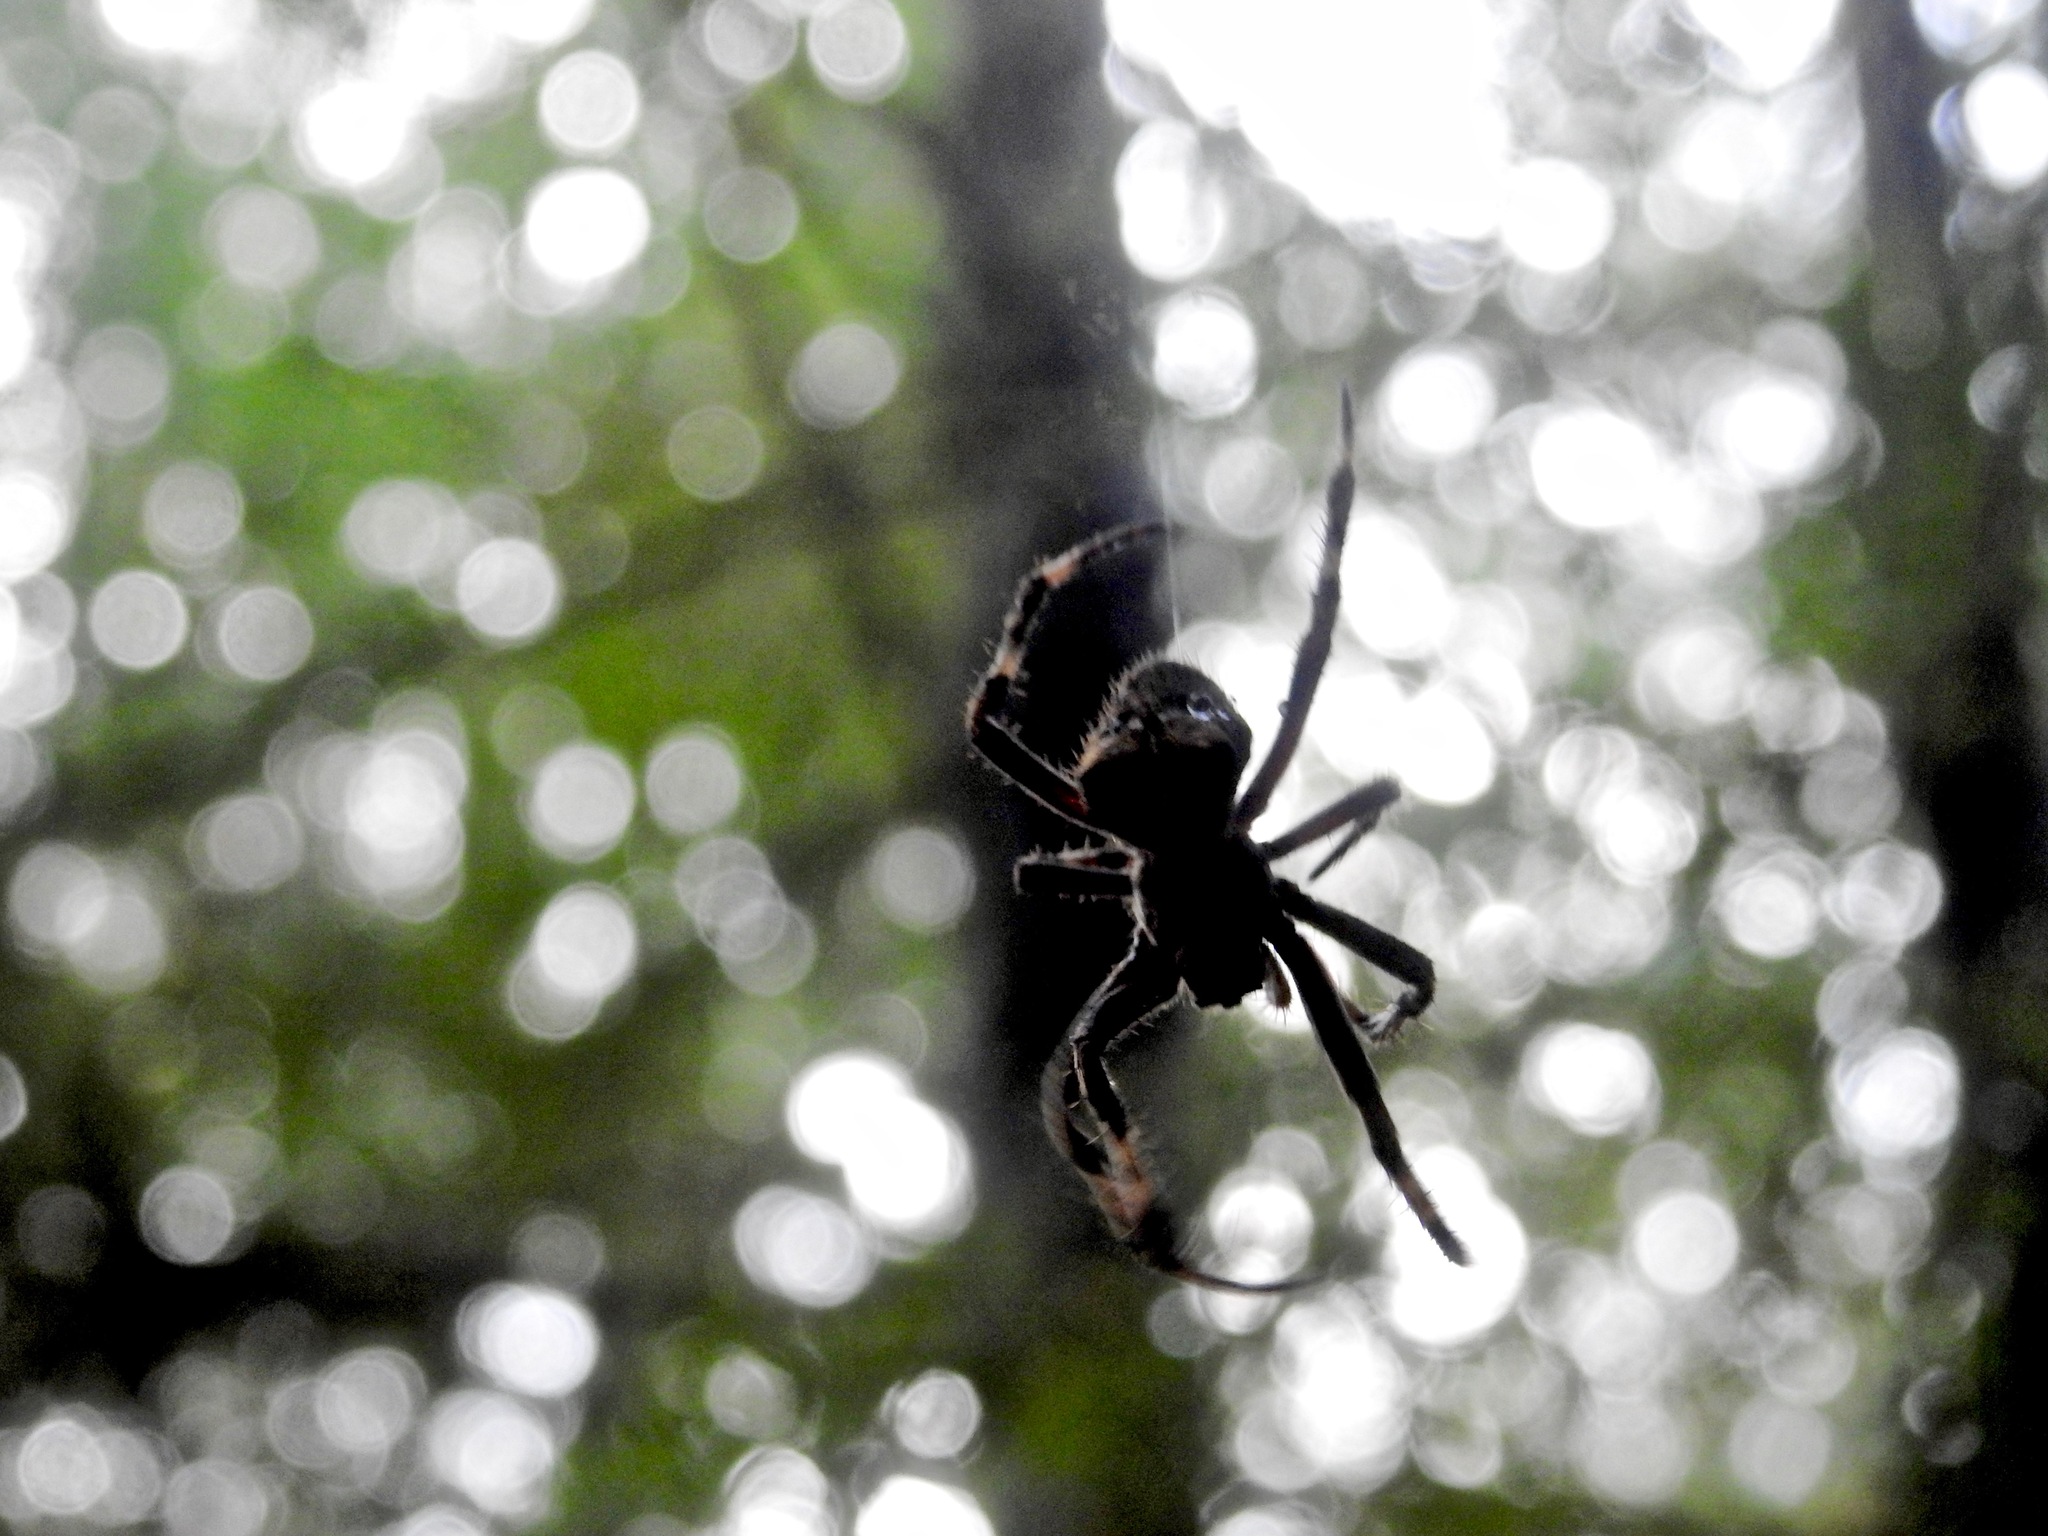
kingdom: Animalia
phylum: Arthropoda
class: Arachnida
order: Araneae
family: Araneidae
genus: Araneus
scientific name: Araneus diadematus
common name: Cross orbweaver
